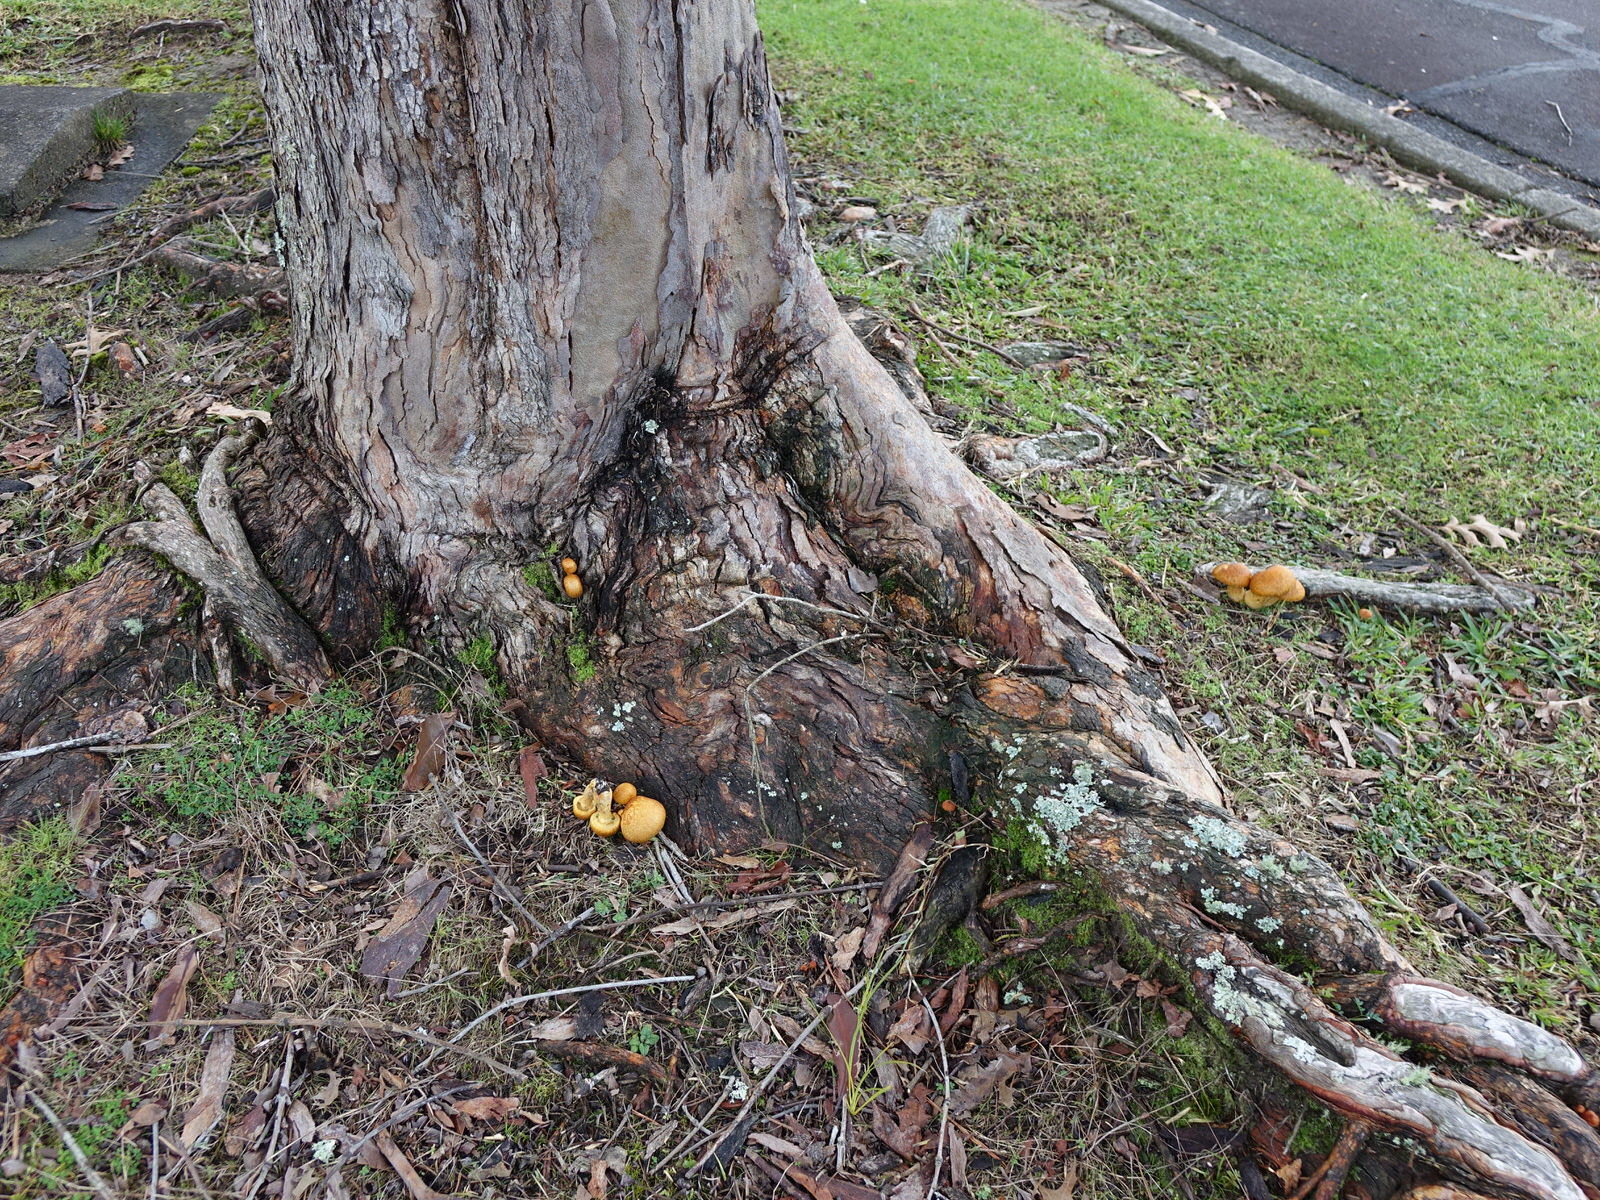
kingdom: Fungi
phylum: Basidiomycota
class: Agaricomycetes
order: Agaricales
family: Hymenogastraceae
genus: Gymnopilus
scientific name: Gymnopilus junonius
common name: Spectacular rustgill
